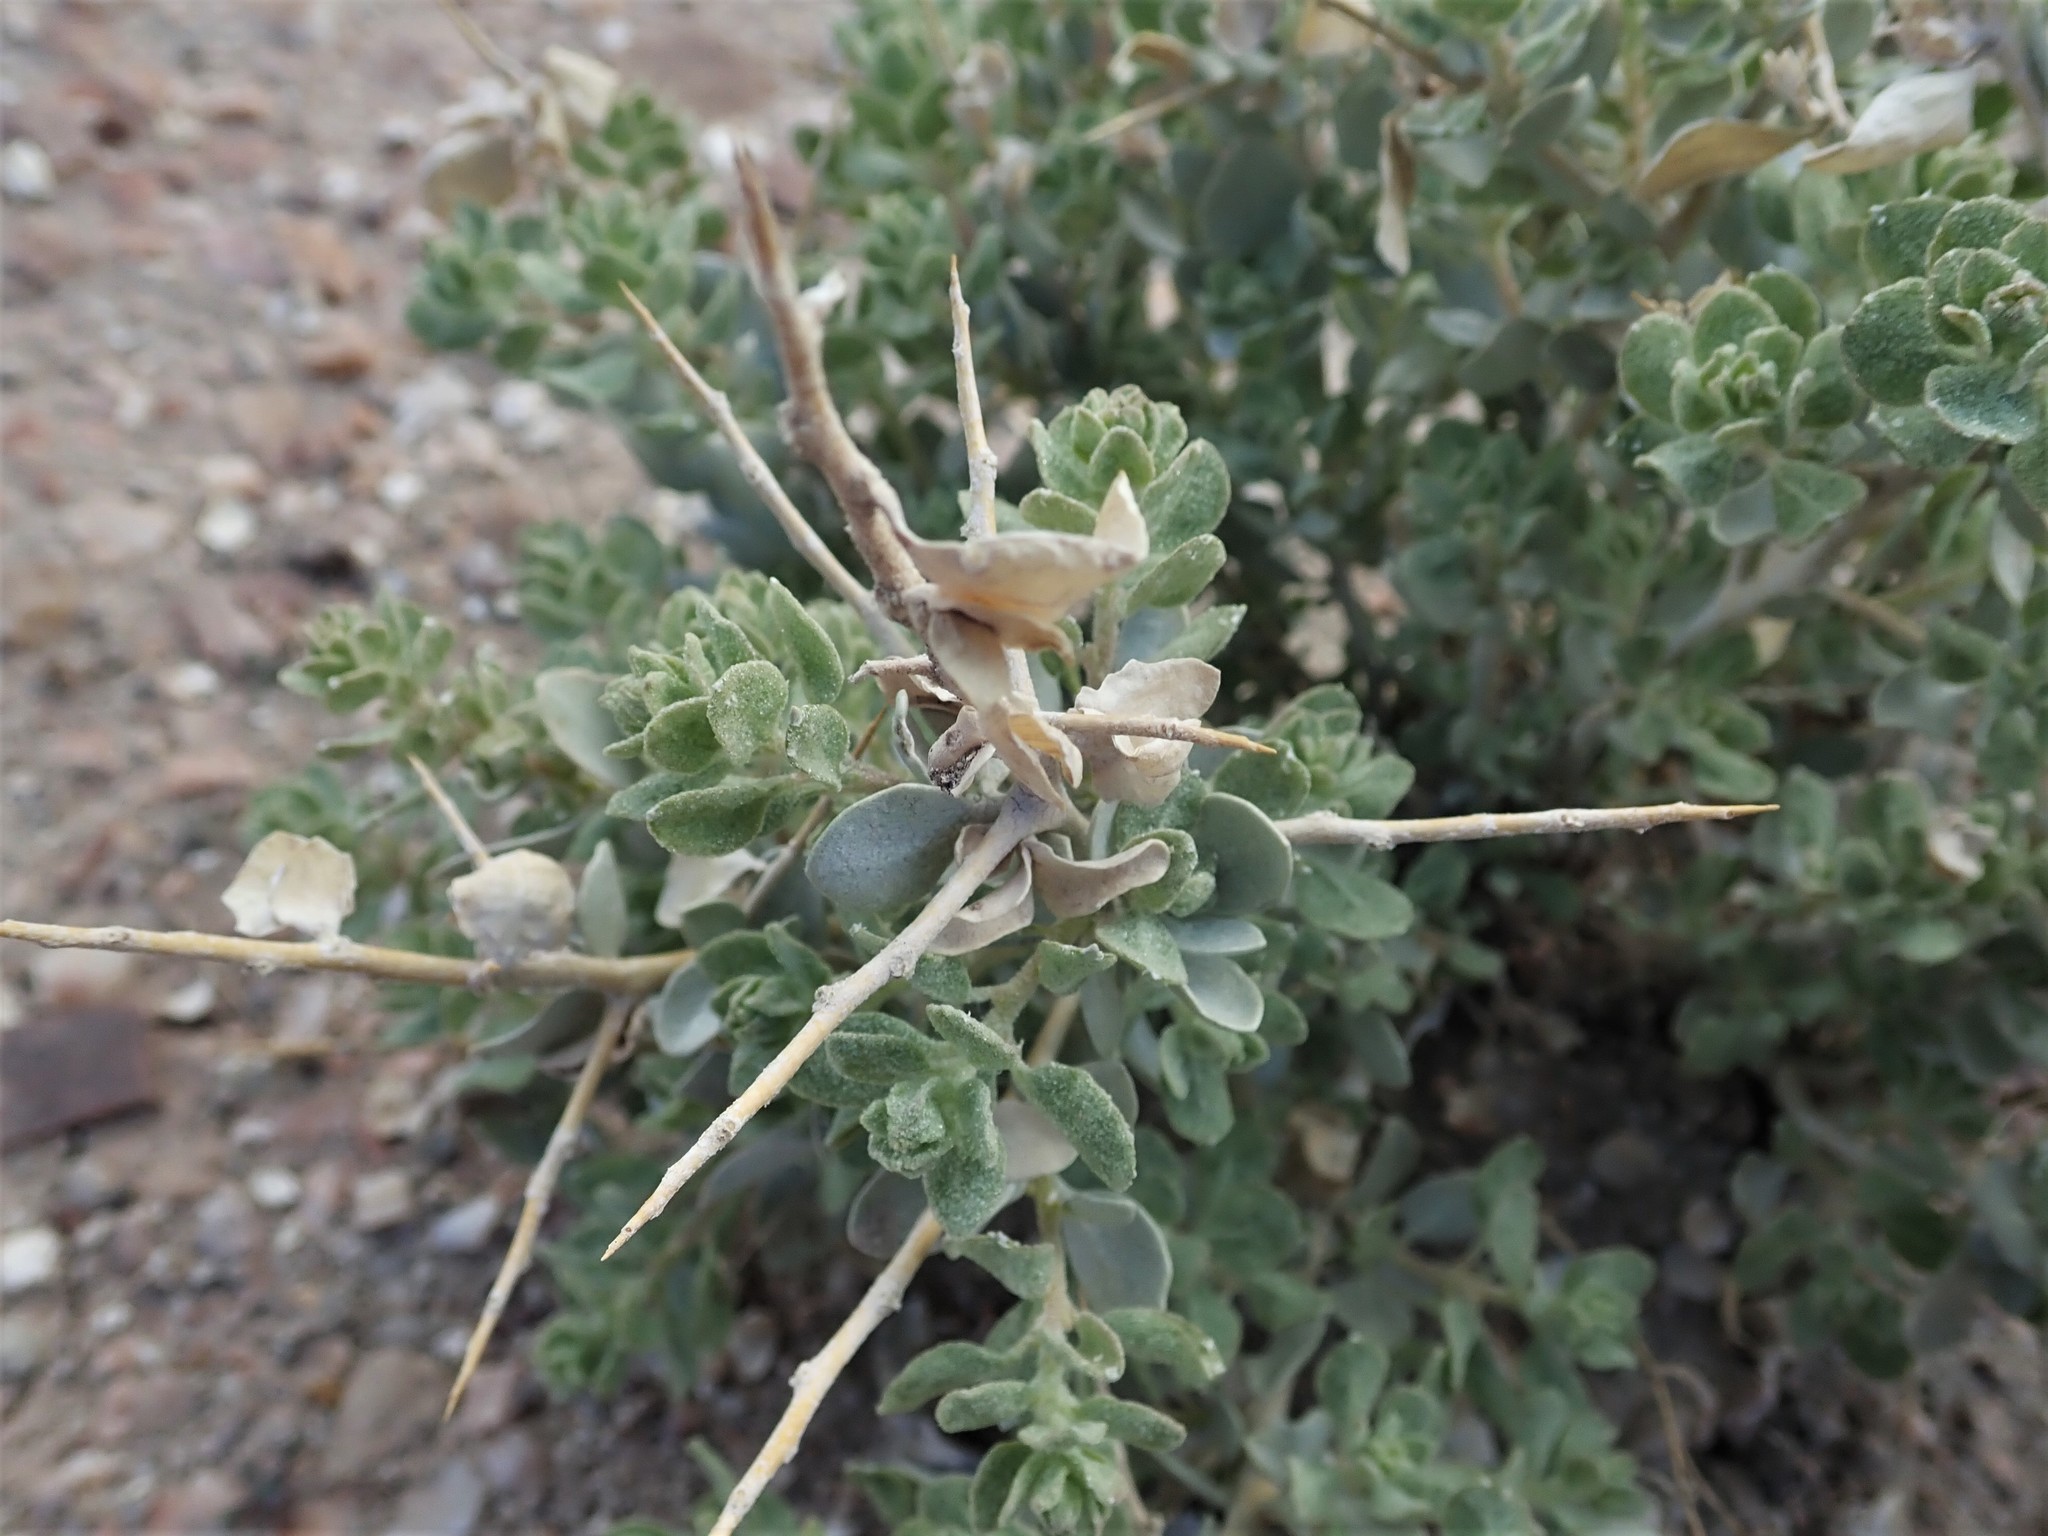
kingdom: Plantae
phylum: Tracheophyta
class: Magnoliopsida
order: Caryophyllales
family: Amaranthaceae
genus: Atriplex
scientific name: Atriplex confertifolia
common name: Shadscale
